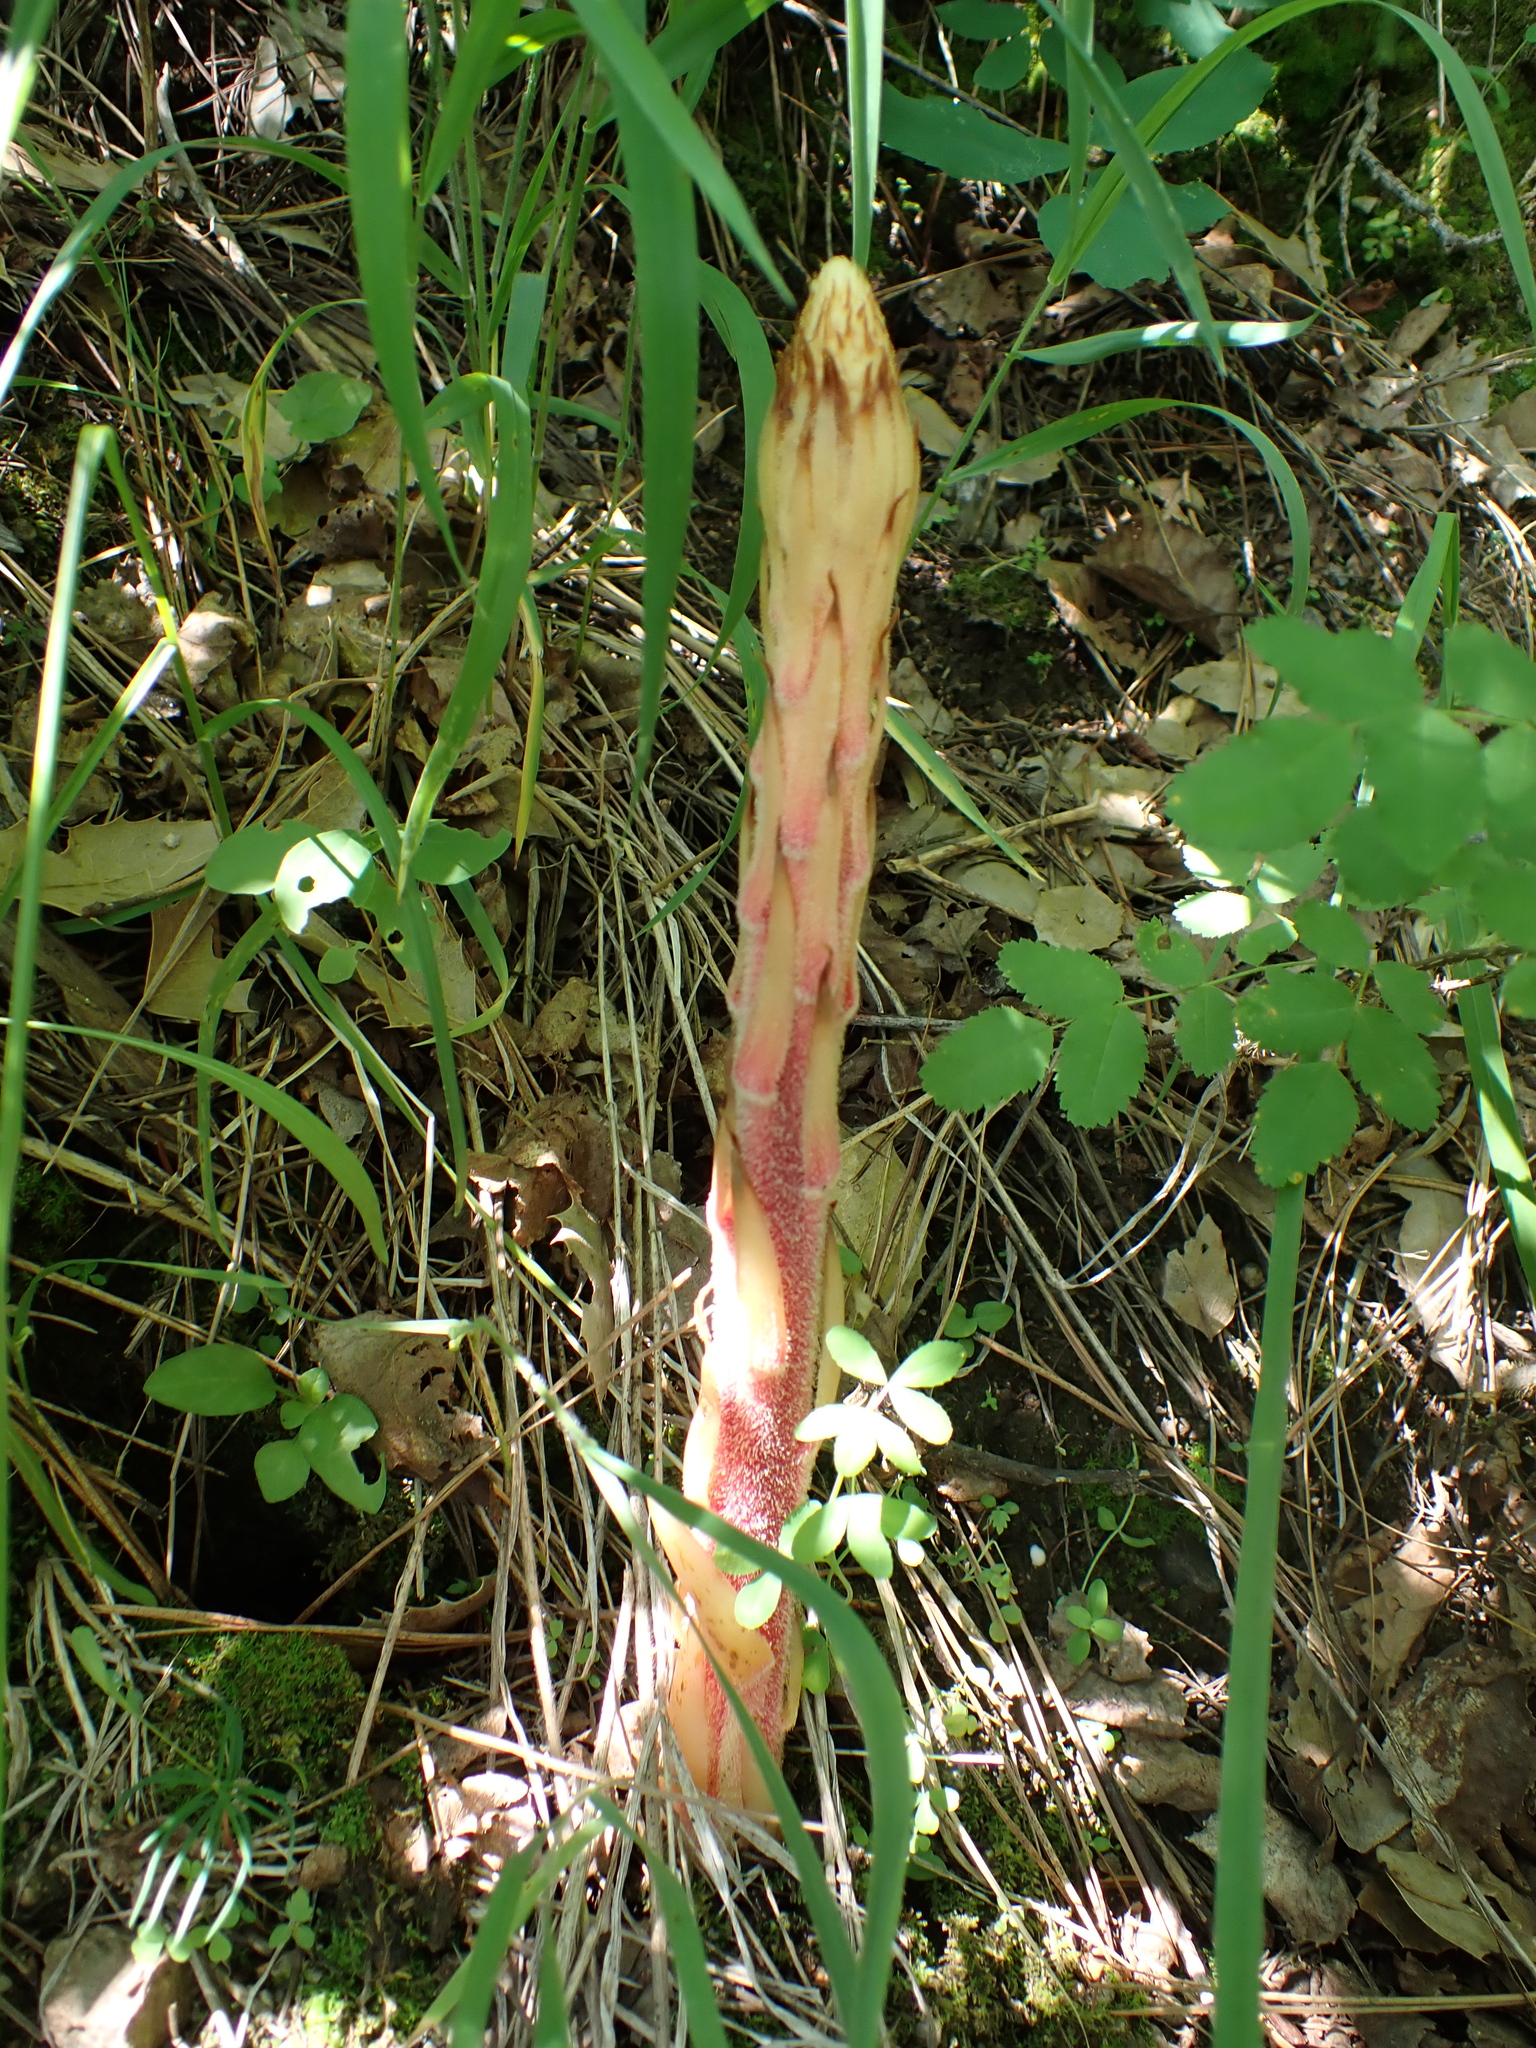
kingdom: Plantae
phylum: Tracheophyta
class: Magnoliopsida
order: Ericales
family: Ericaceae
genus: Pterospora
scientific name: Pterospora andromedea
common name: Giant bird's-nest
